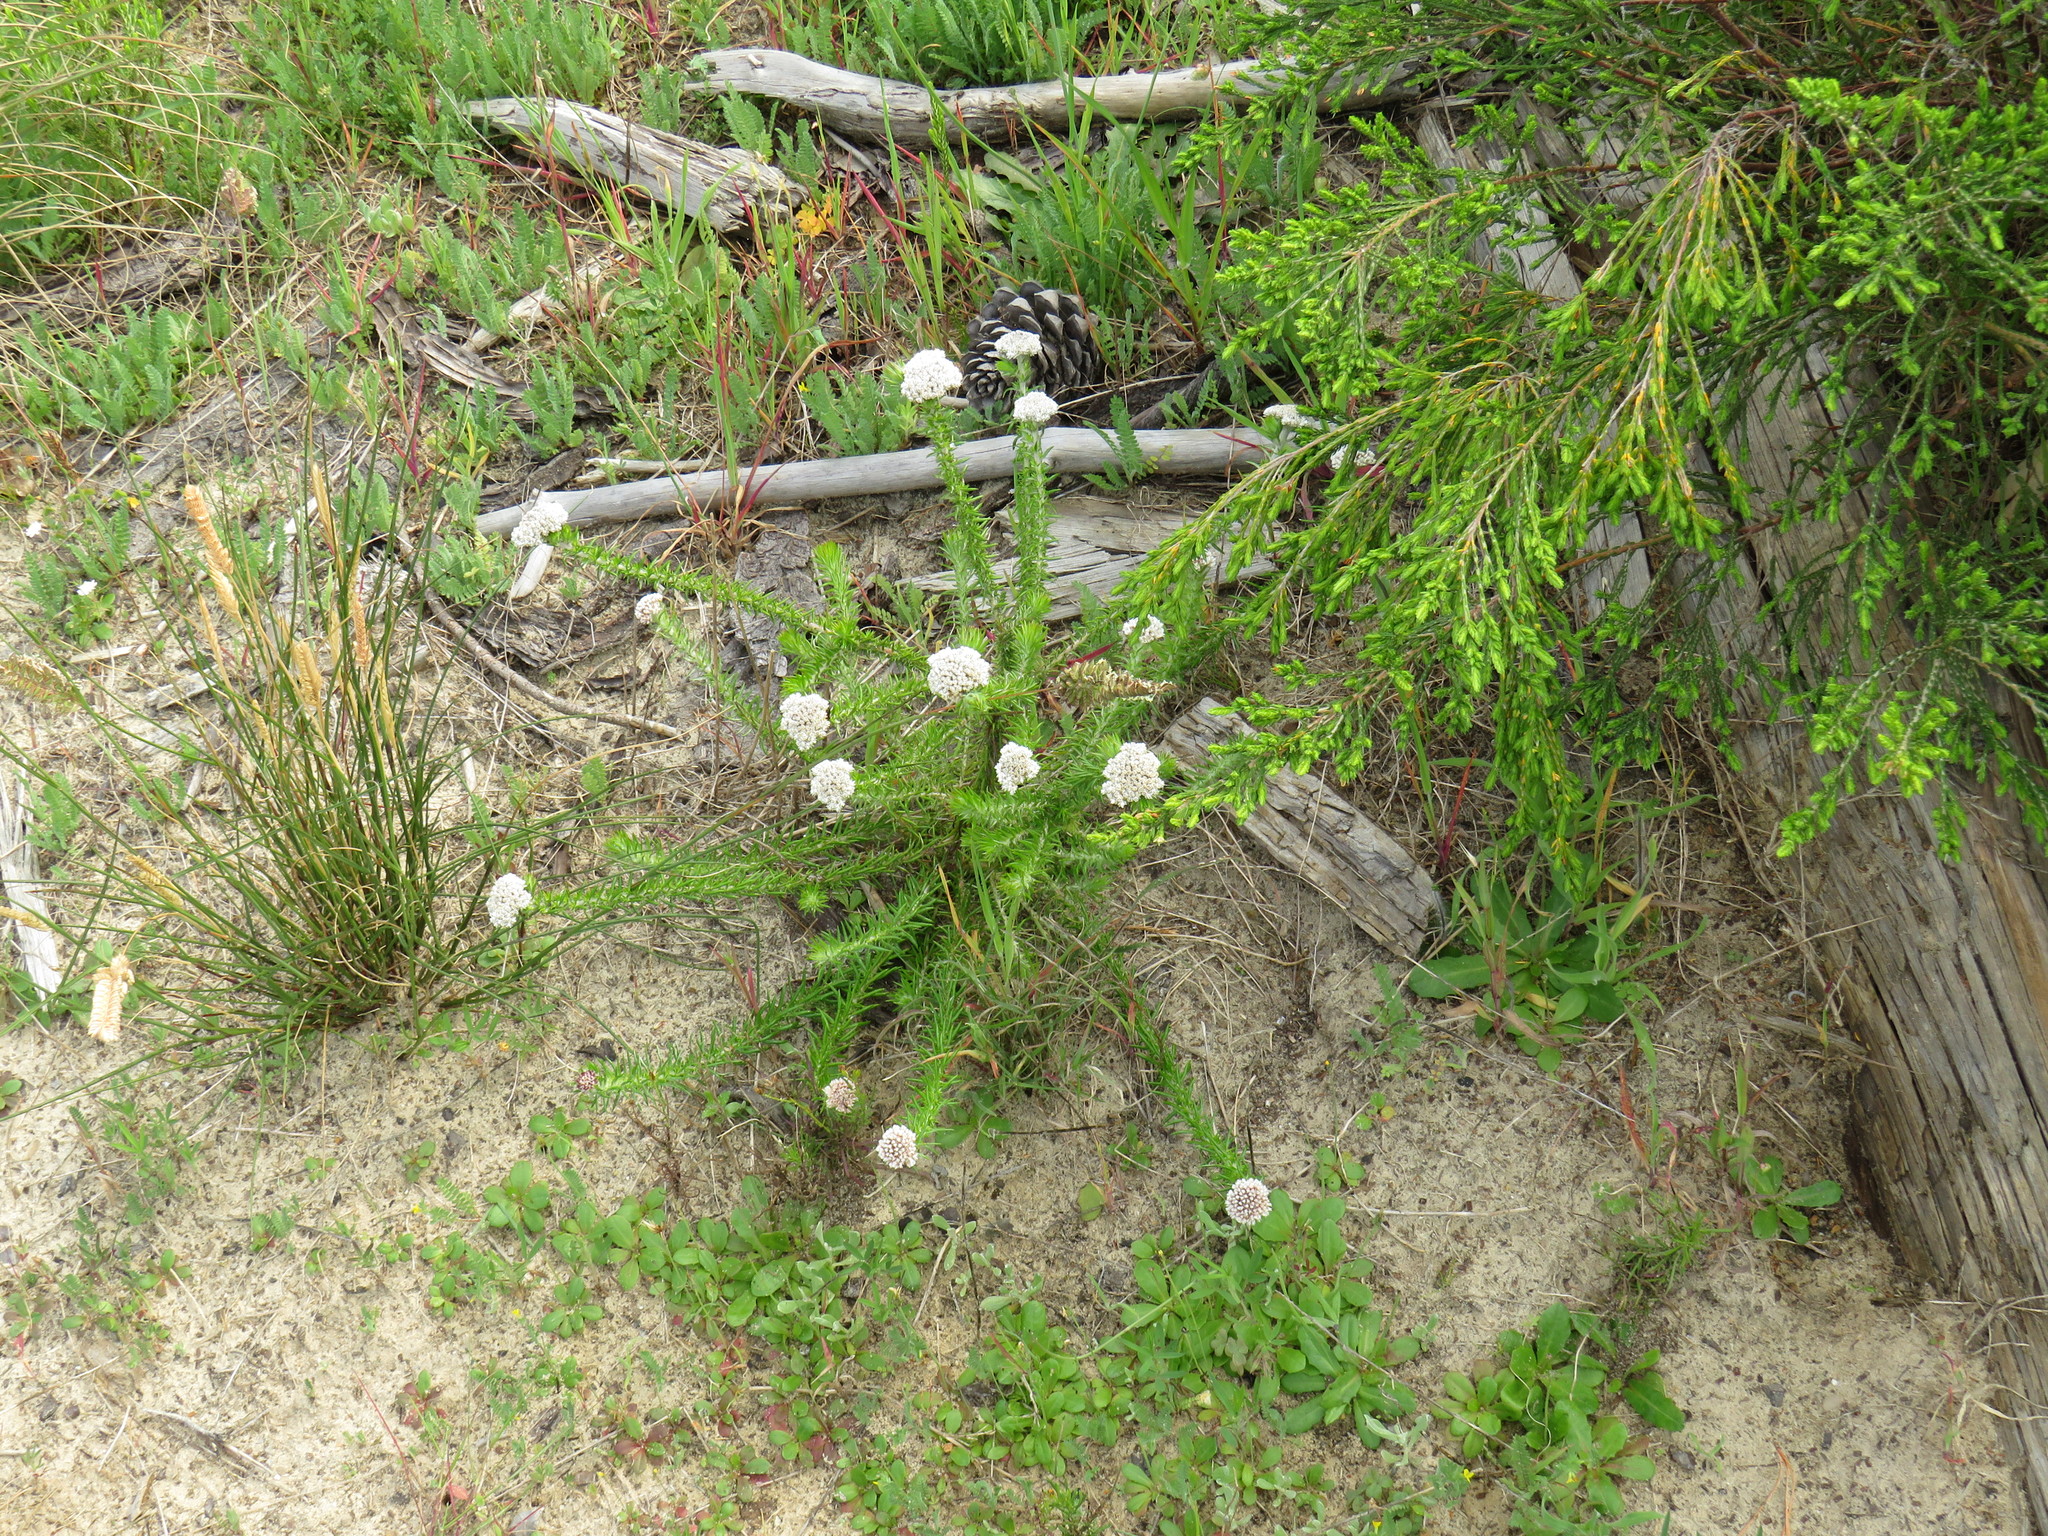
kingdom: Plantae
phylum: Tracheophyta
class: Magnoliopsida
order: Asterales
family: Asteraceae
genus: Metalasia
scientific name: Metalasia pulchella
